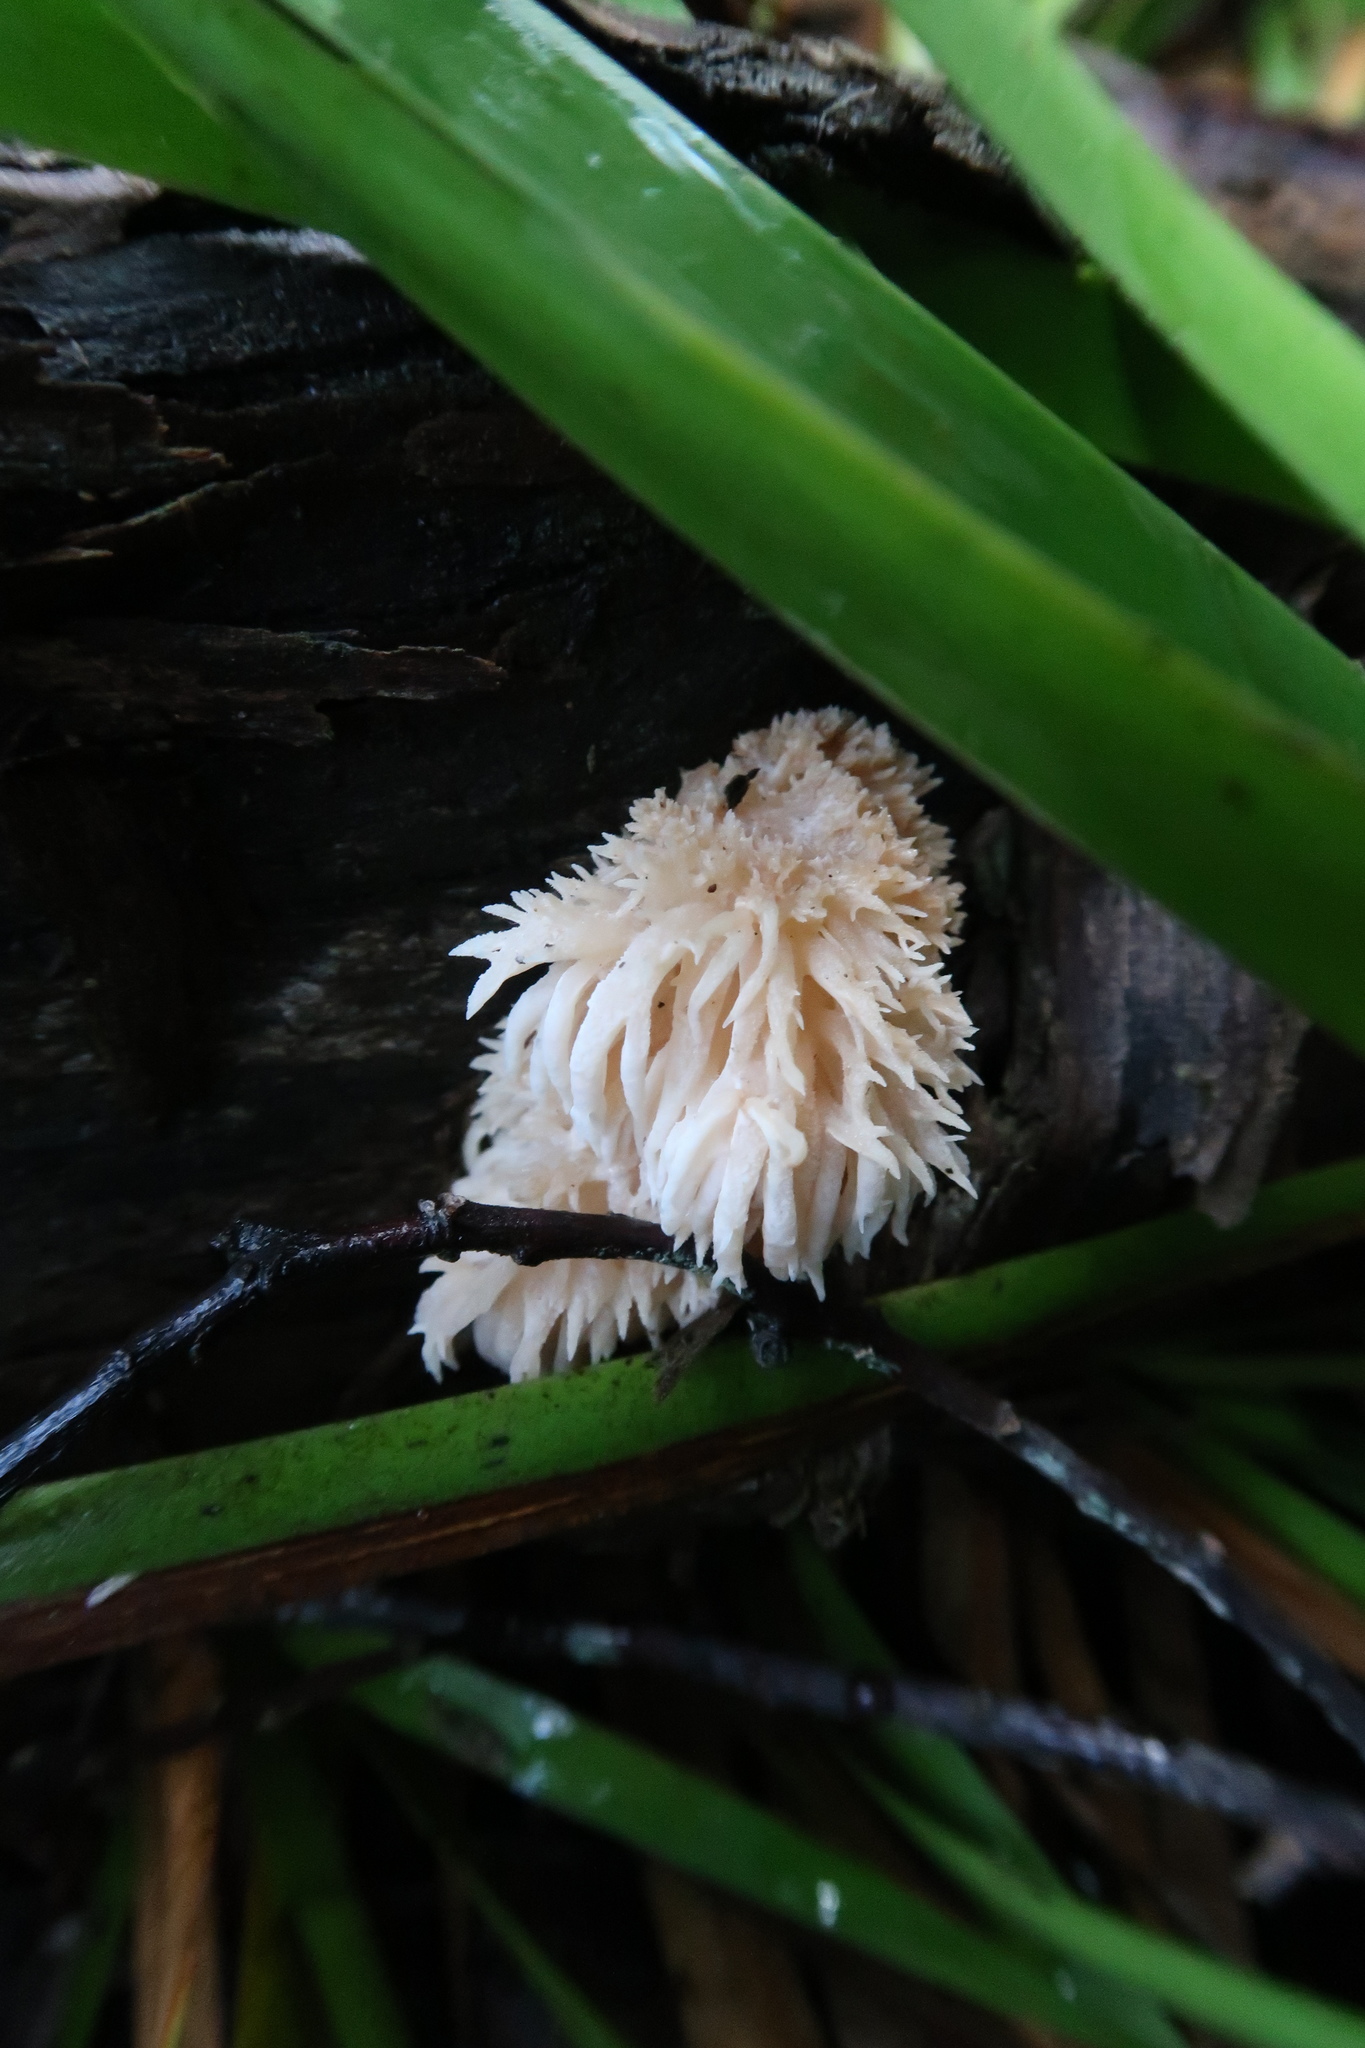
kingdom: Fungi
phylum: Basidiomycota
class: Agaricomycetes
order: Russulales
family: Hericiaceae
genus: Hericium
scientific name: Hericium coralloides
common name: Coral tooth
